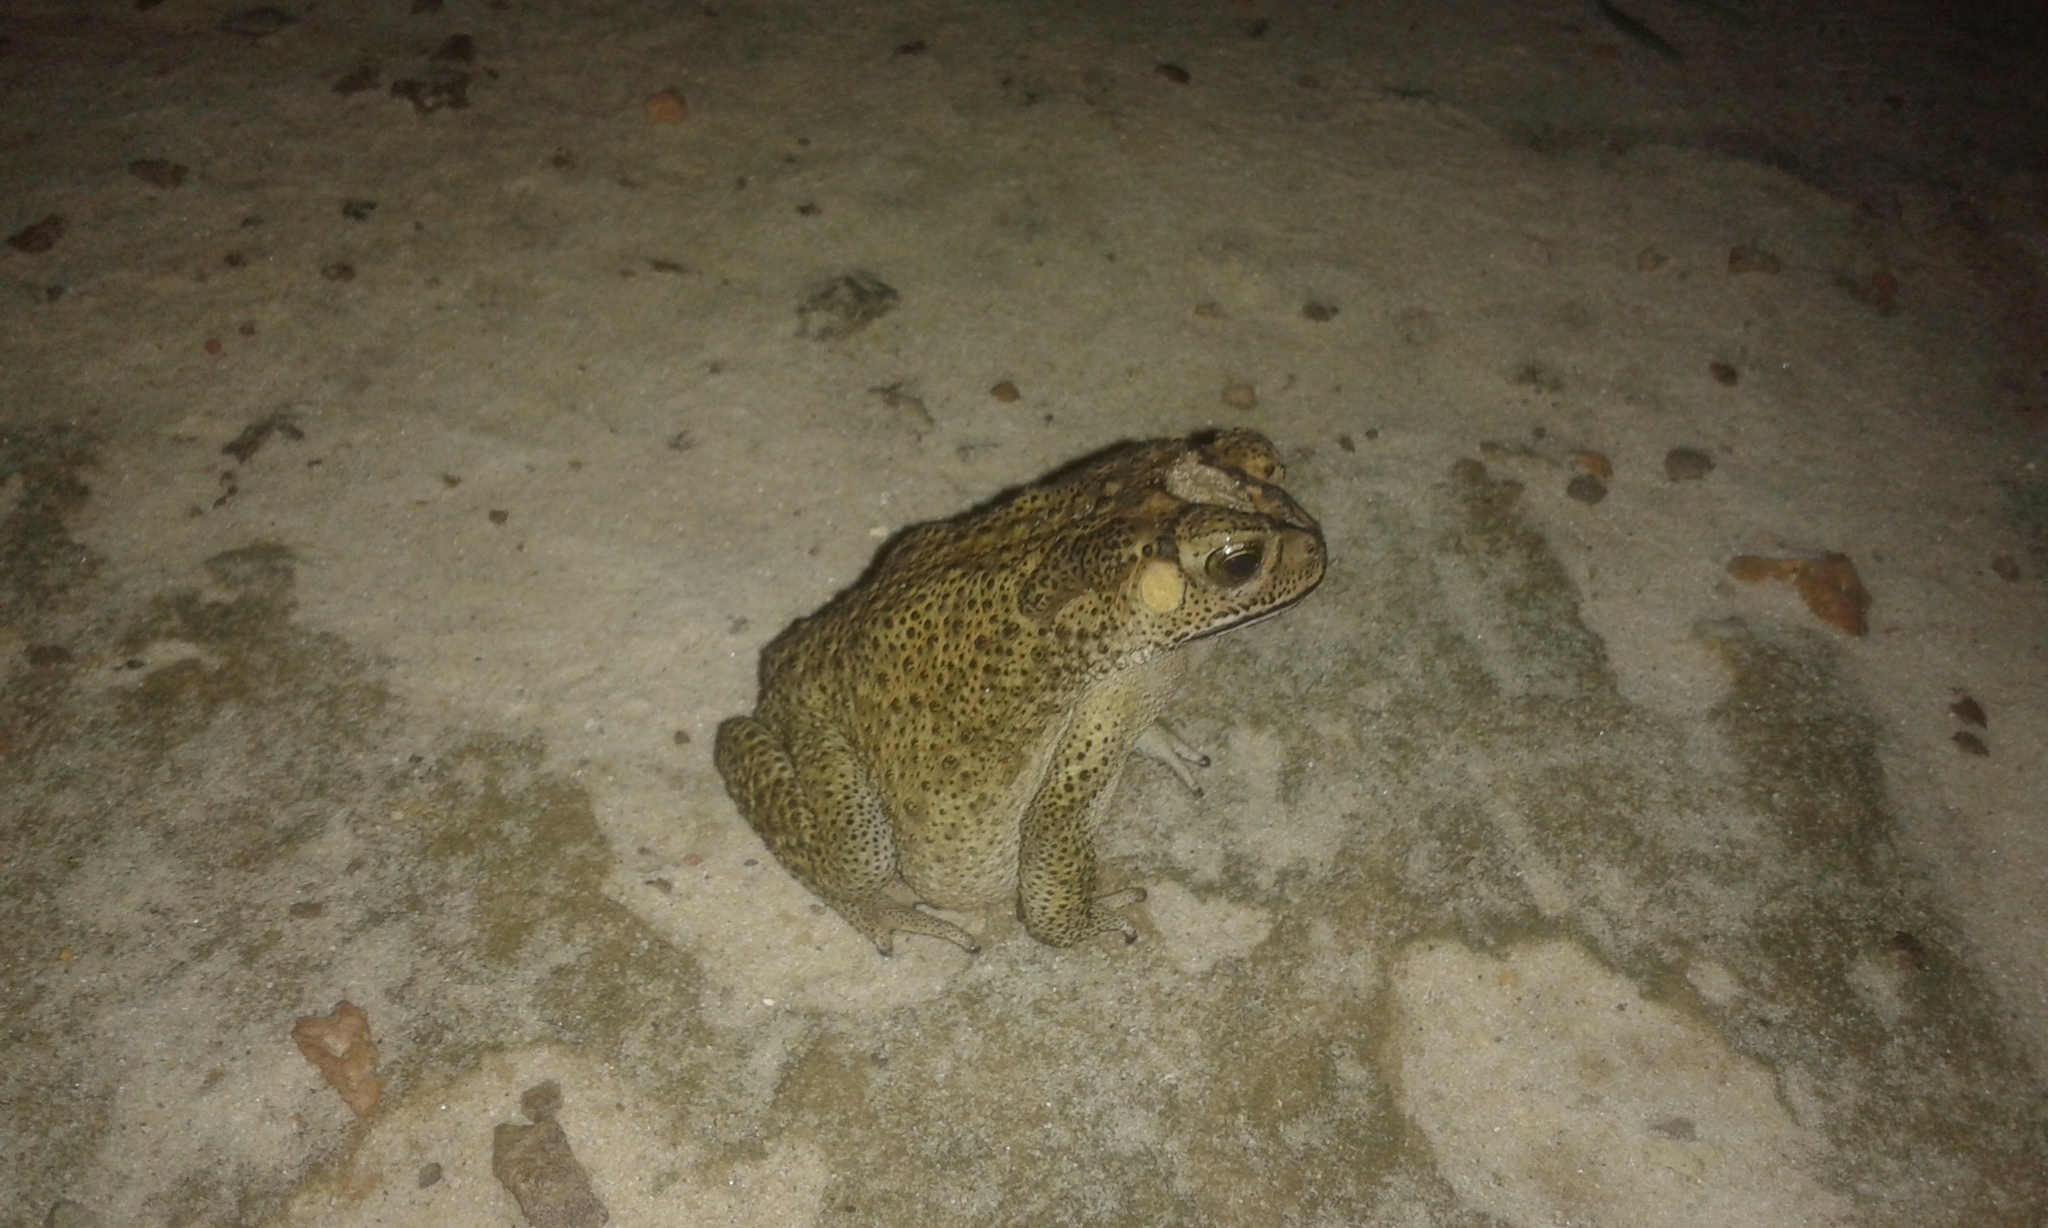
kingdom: Animalia
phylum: Chordata
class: Amphibia
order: Anura
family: Bufonidae
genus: Duttaphrynus
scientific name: Duttaphrynus melanostictus
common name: Common sunda toad
